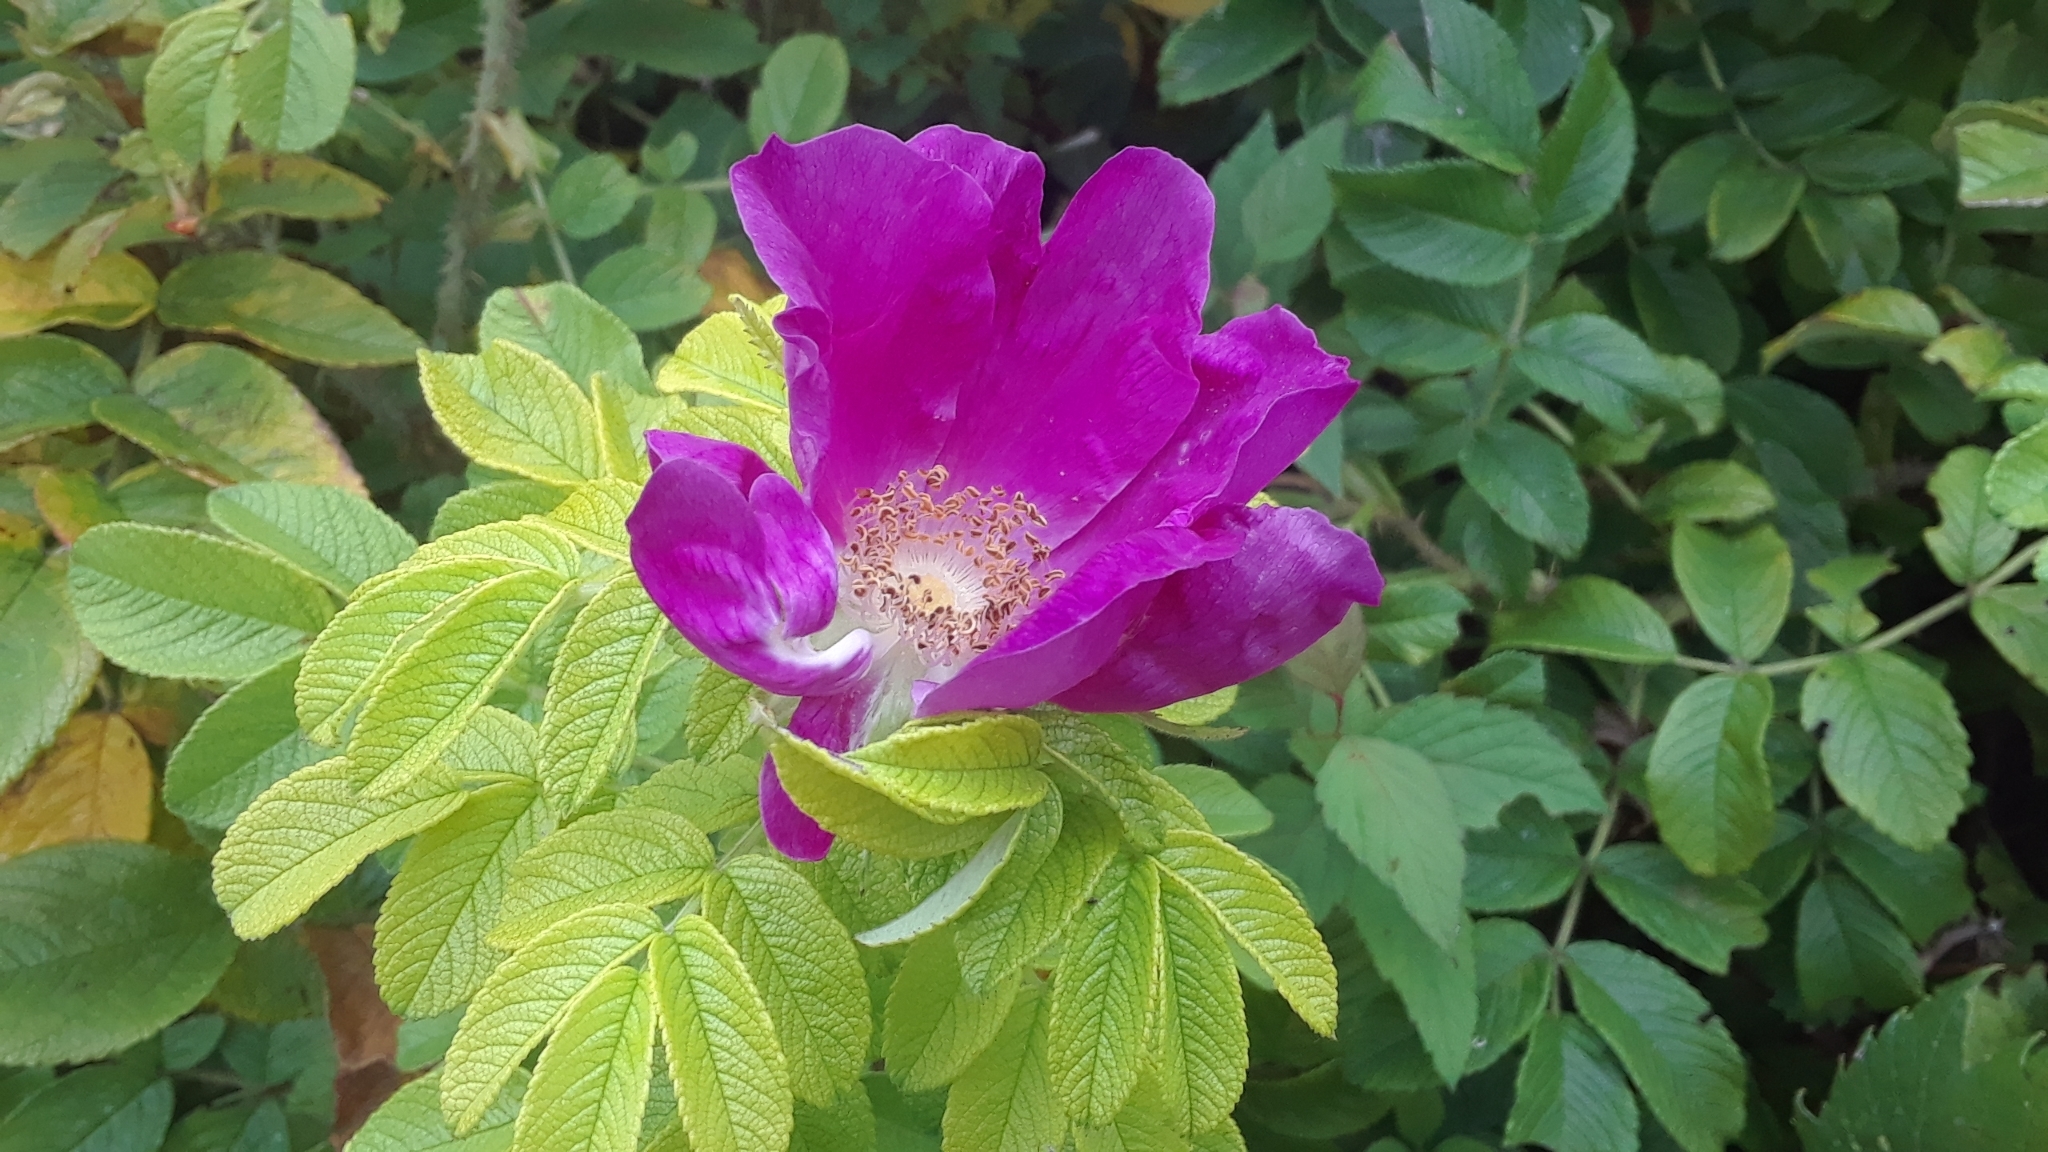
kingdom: Plantae
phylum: Tracheophyta
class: Magnoliopsida
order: Rosales
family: Rosaceae
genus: Rosa
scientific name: Rosa rugosa
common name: Japanese rose
